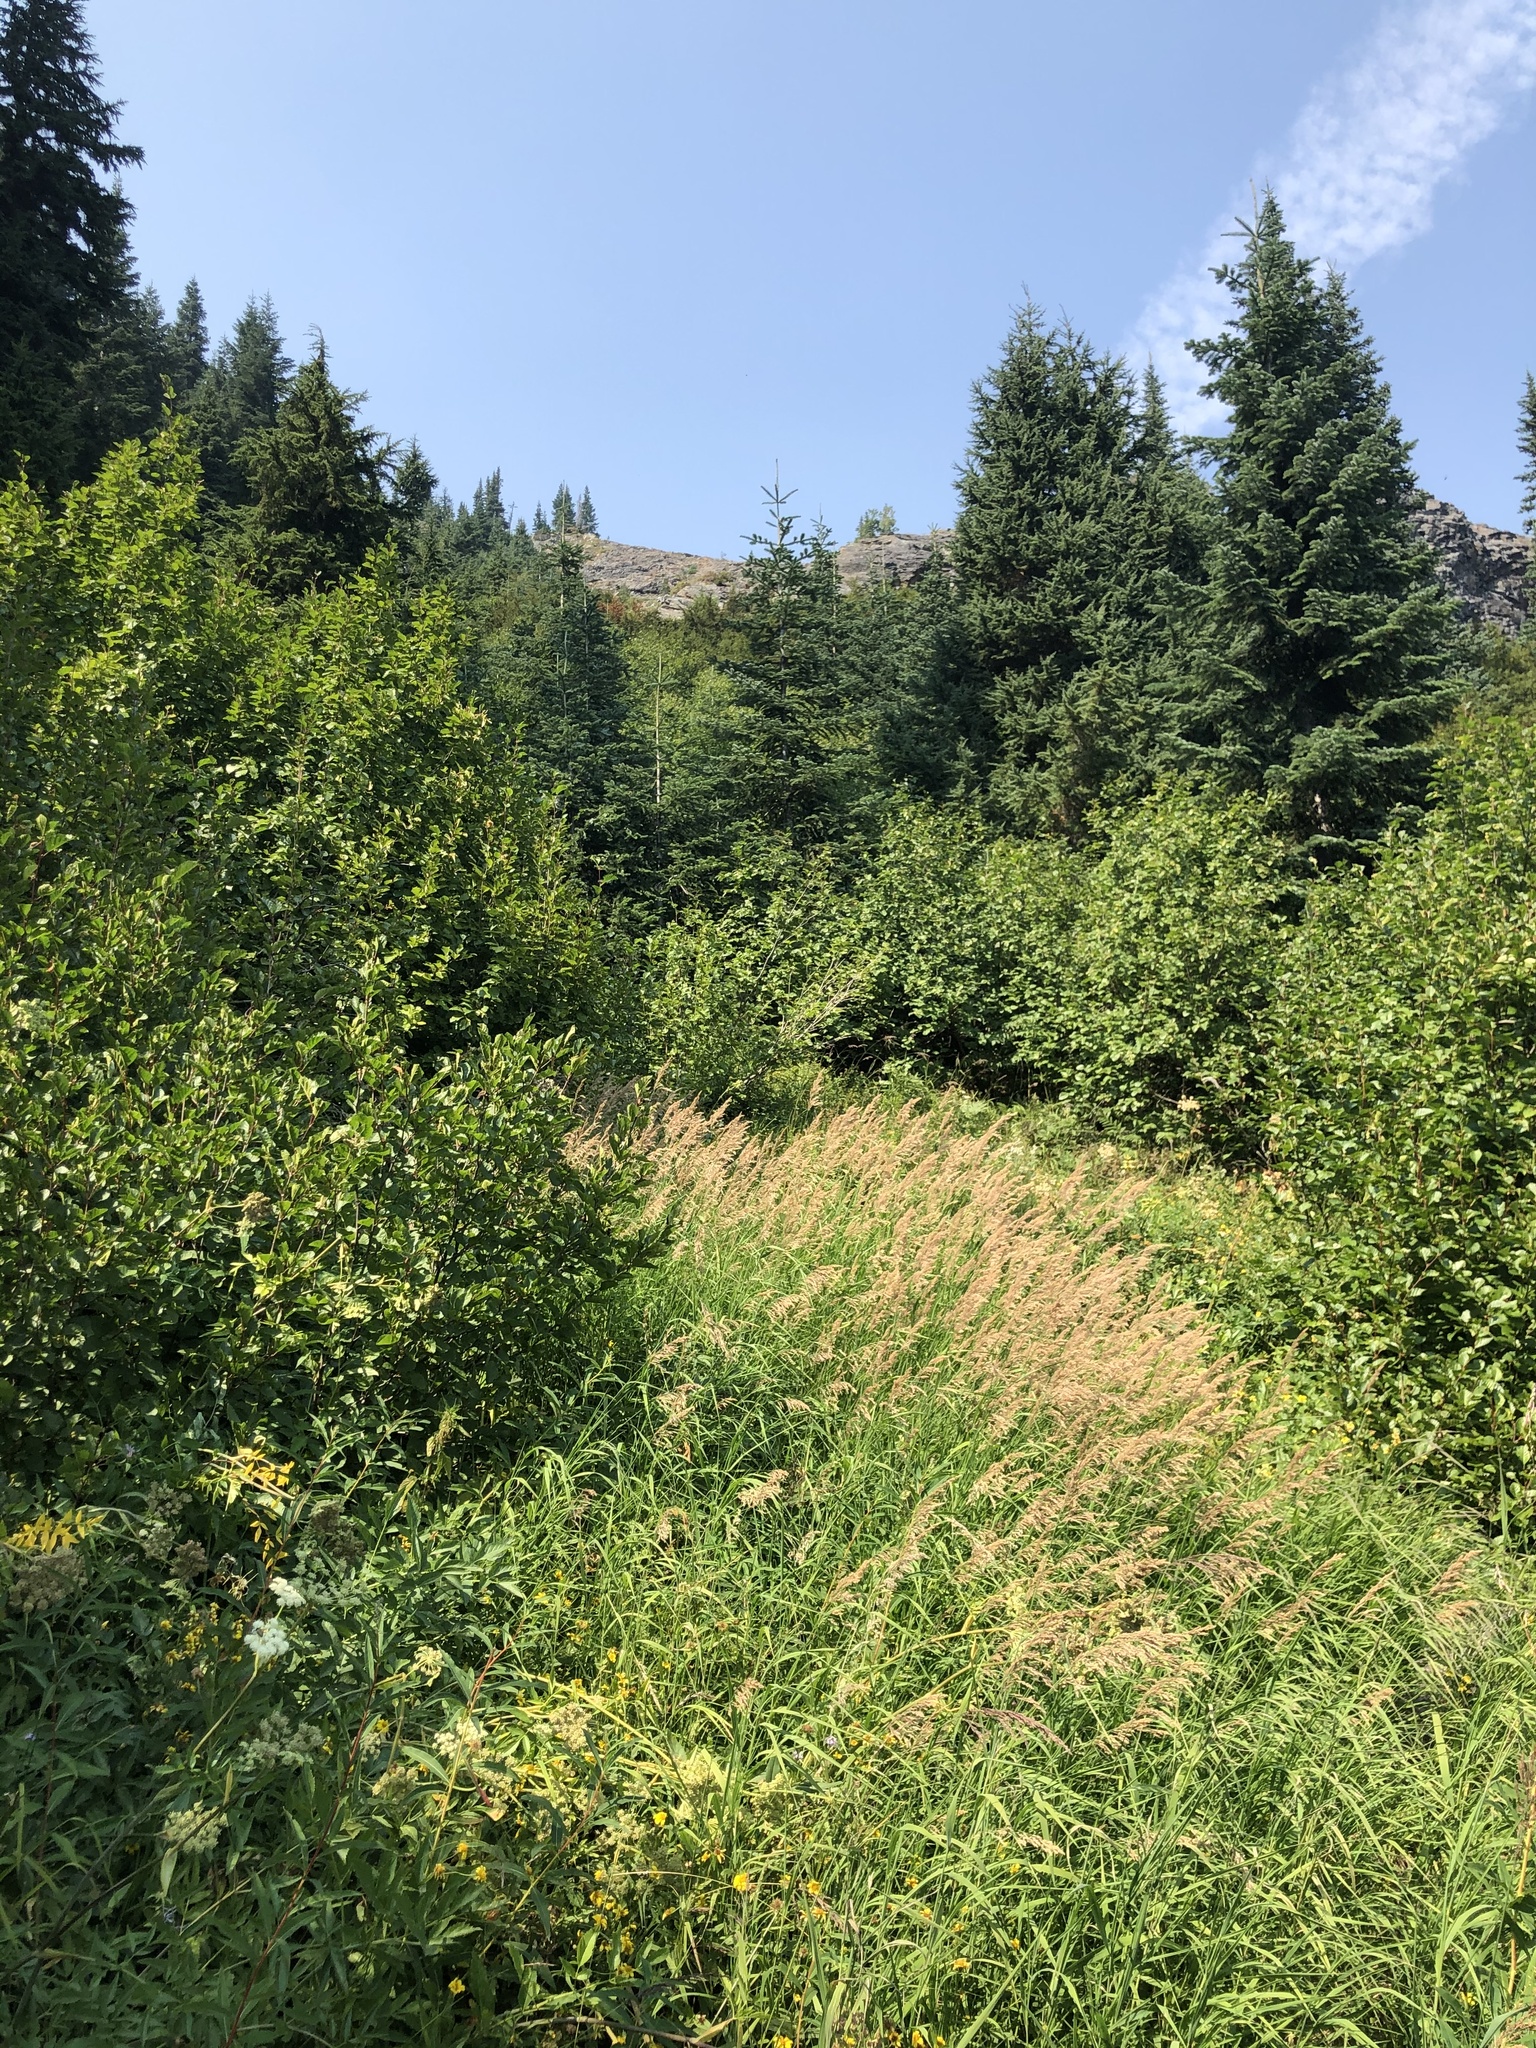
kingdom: Plantae
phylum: Tracheophyta
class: Pinopsida
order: Pinales
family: Pinaceae
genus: Tsuga
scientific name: Tsuga mertensiana
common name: Mountain hemlock
